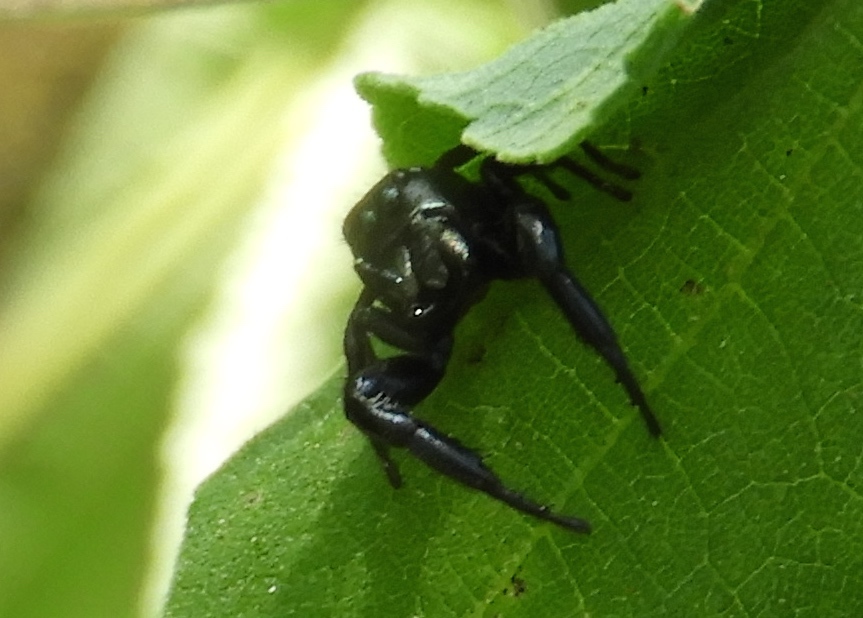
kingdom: Animalia
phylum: Arthropoda
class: Arachnida
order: Araneae
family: Salticidae
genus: Sassacus
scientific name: Sassacus
